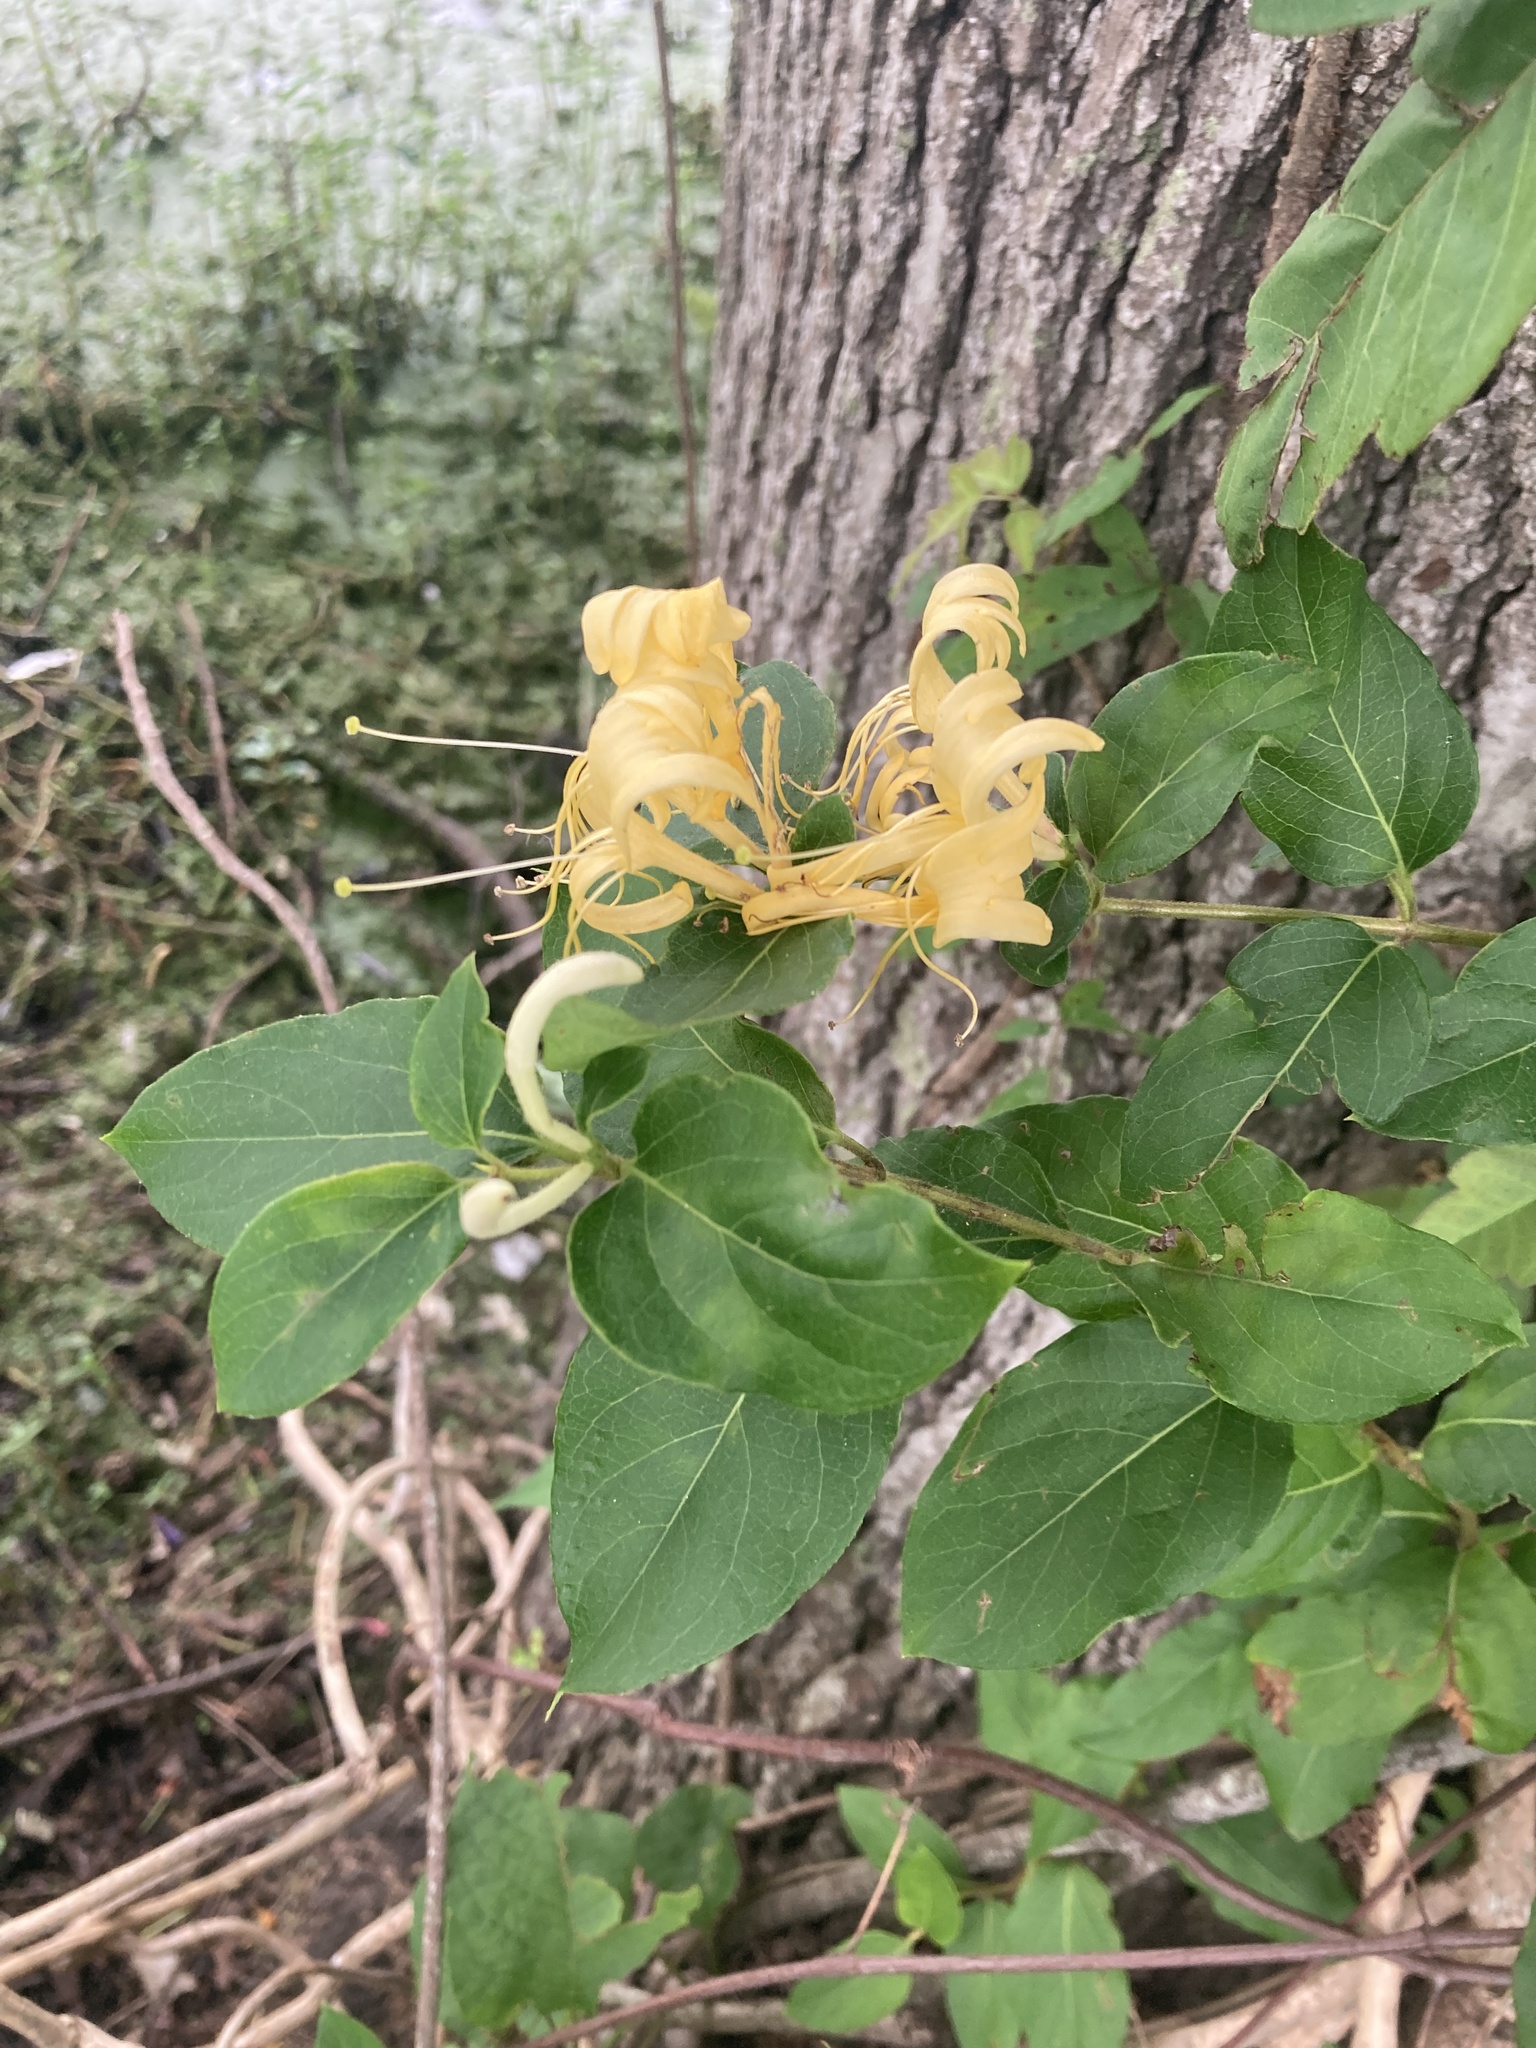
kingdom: Plantae
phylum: Tracheophyta
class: Magnoliopsida
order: Dipsacales
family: Caprifoliaceae
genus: Lonicera
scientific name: Lonicera japonica
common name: Japanese honeysuckle
